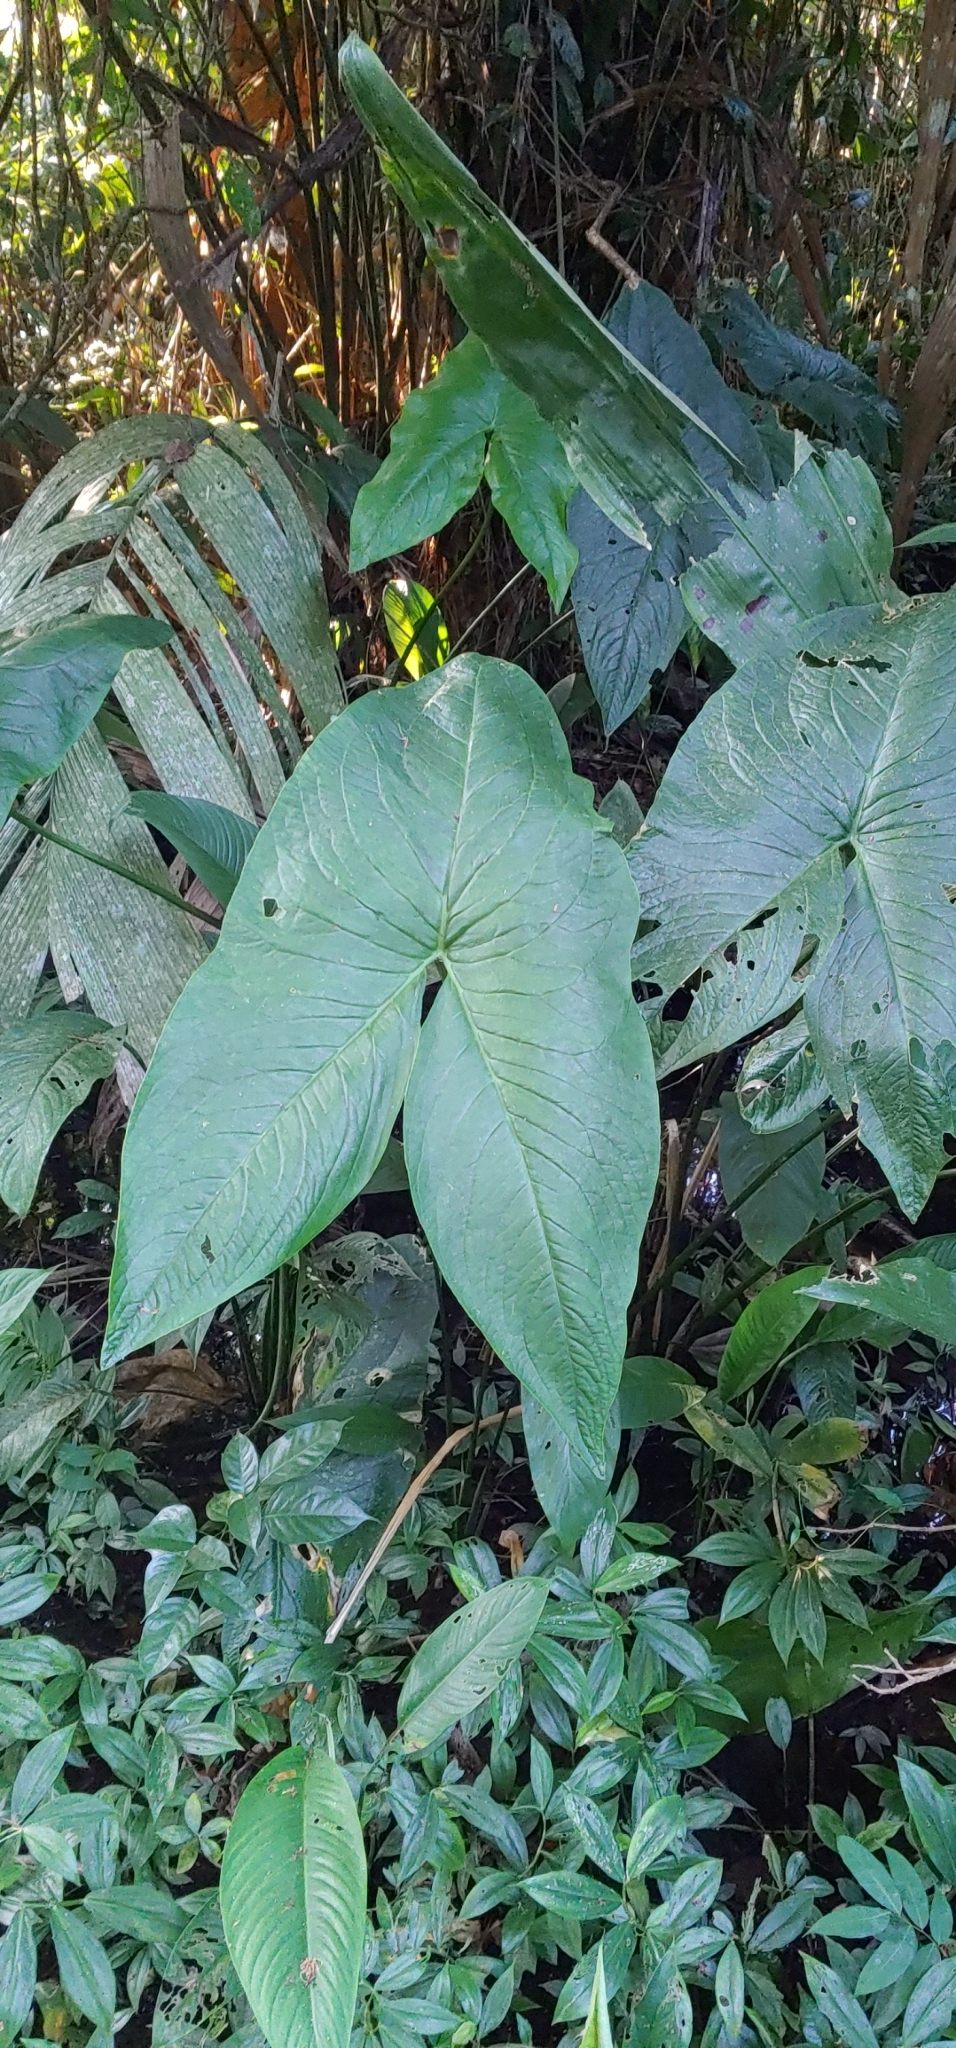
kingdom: Plantae
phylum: Tracheophyta
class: Liliopsida
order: Alismatales
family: Araceae
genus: Urospatha
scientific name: Urospatha grandis
